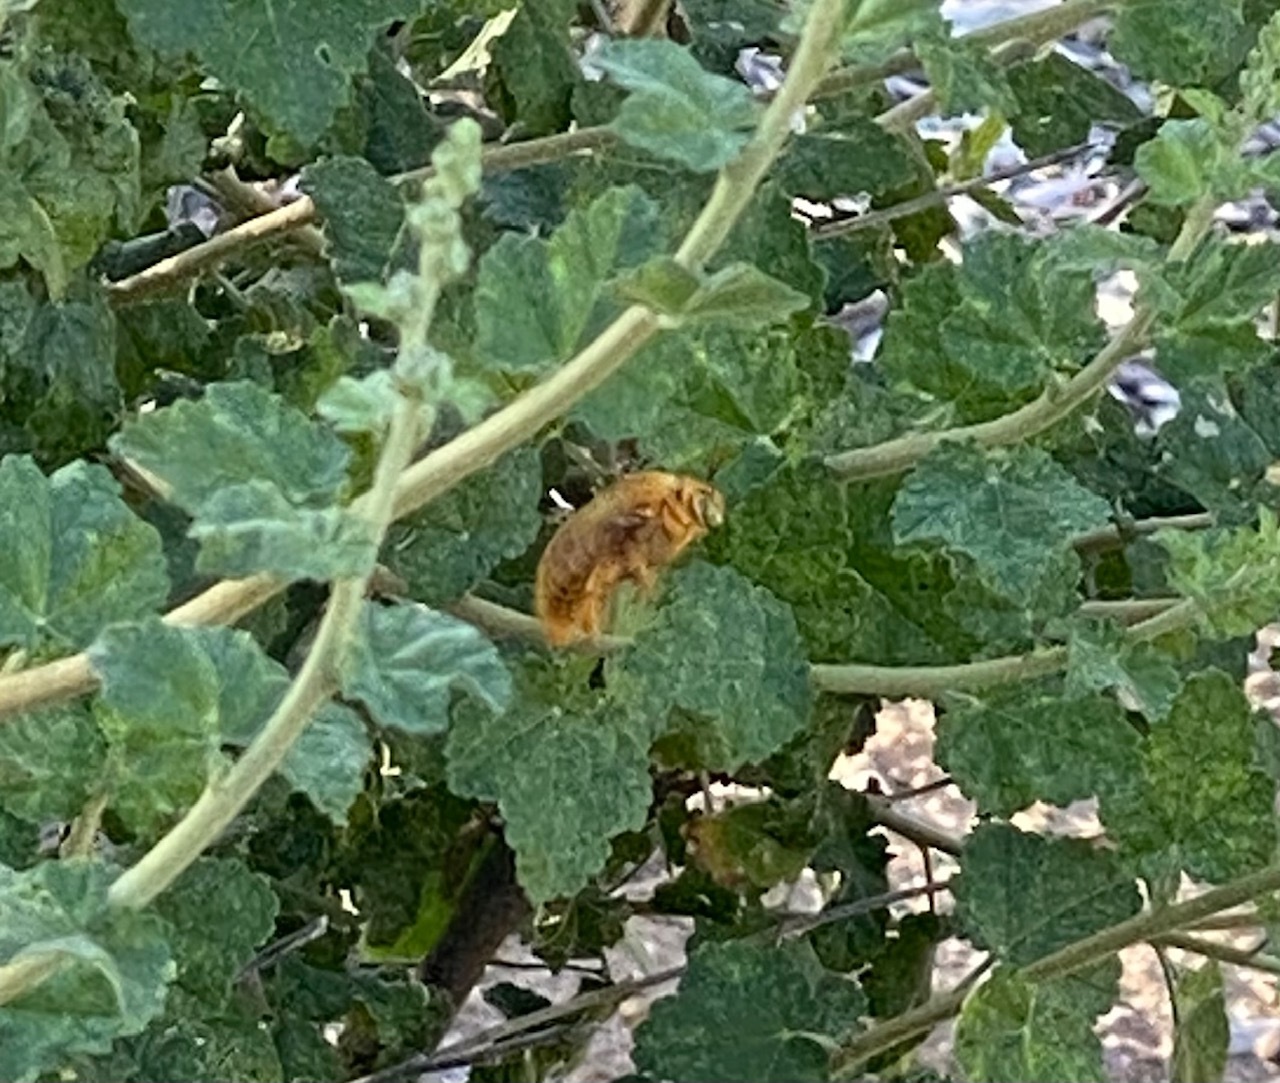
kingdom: Animalia
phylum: Arthropoda
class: Insecta
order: Hymenoptera
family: Apidae
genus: Xylocopa
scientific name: Xylocopa sonorina
